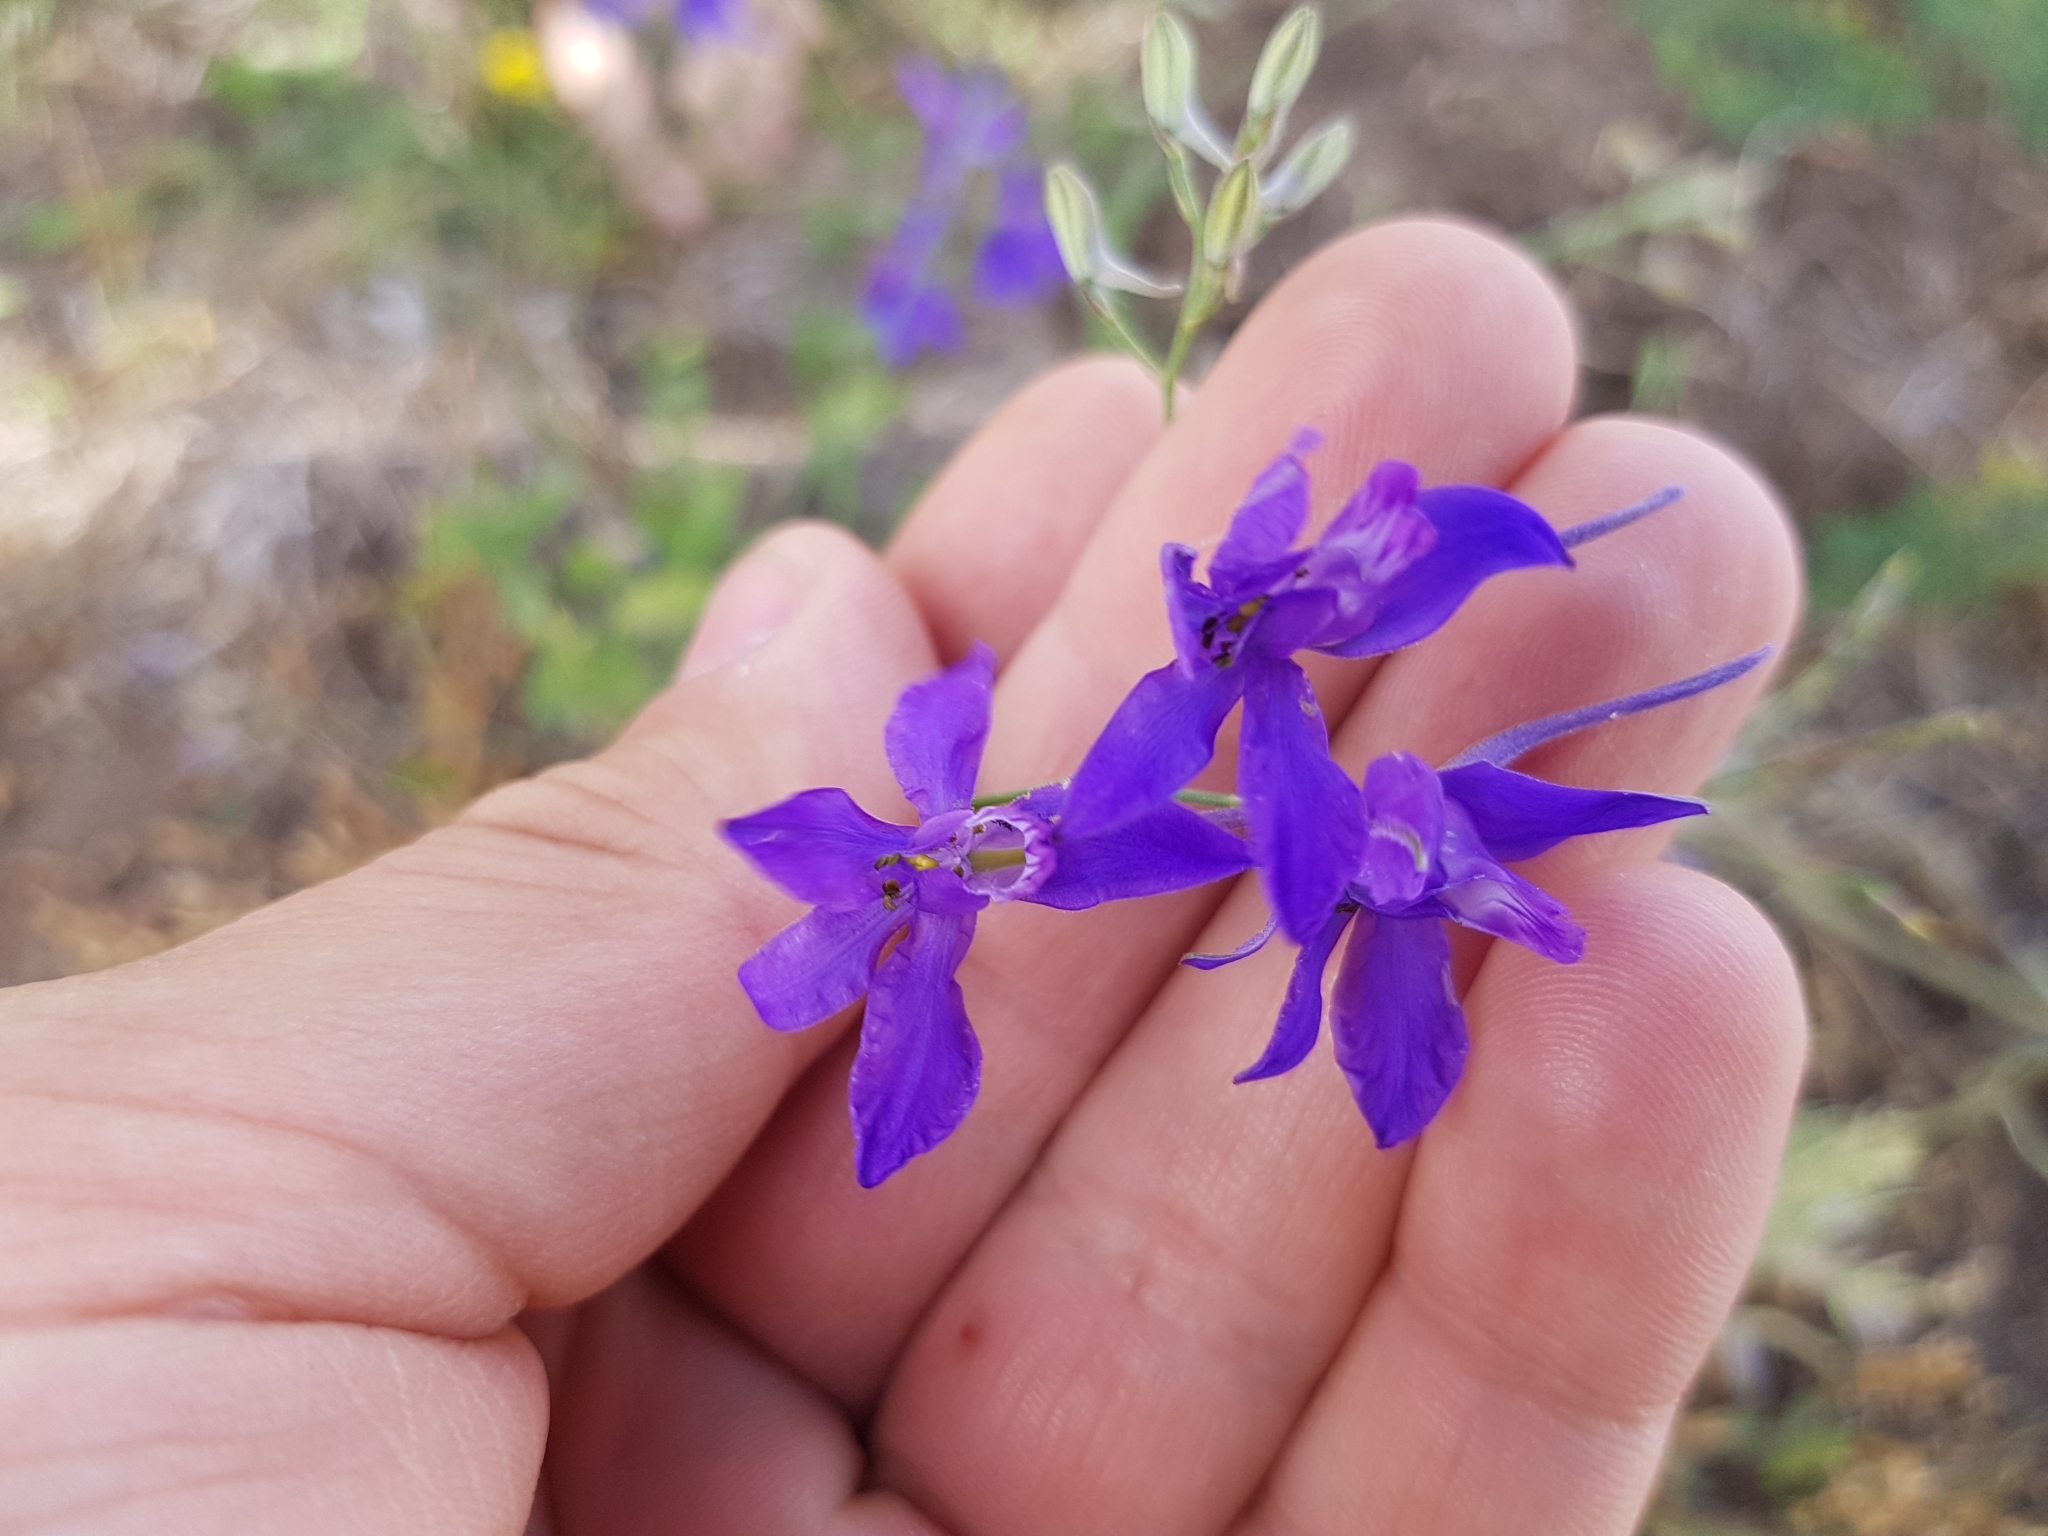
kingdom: Plantae
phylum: Tracheophyta
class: Magnoliopsida
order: Ranunculales
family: Ranunculaceae
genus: Delphinium
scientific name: Delphinium consolida
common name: Branching larkspur
